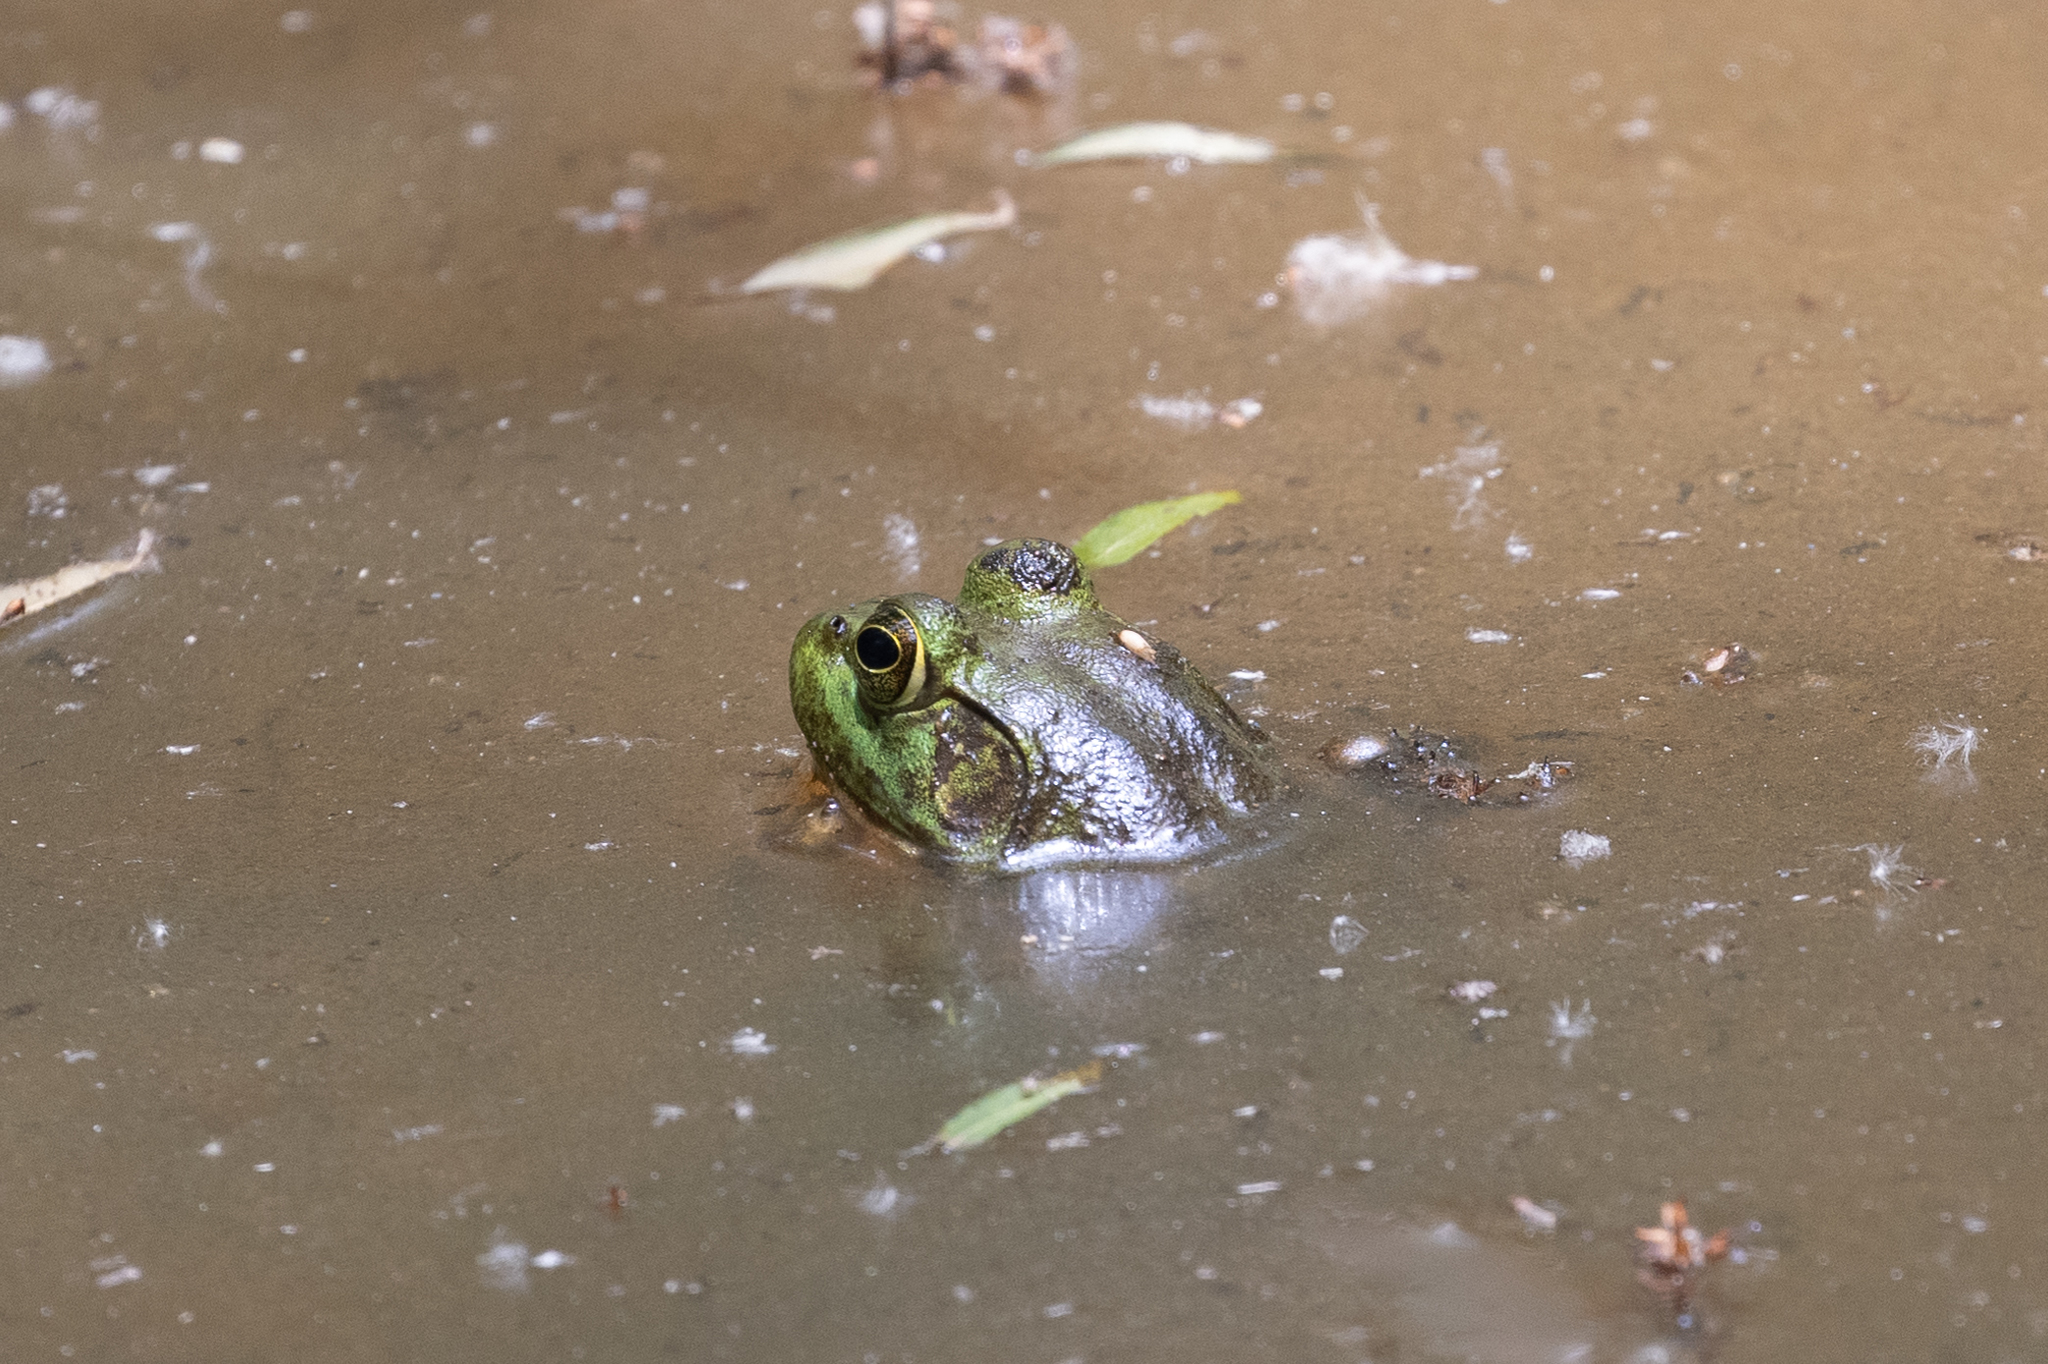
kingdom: Animalia
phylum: Chordata
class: Amphibia
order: Anura
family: Ranidae
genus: Lithobates
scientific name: Lithobates catesbeianus
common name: American bullfrog
